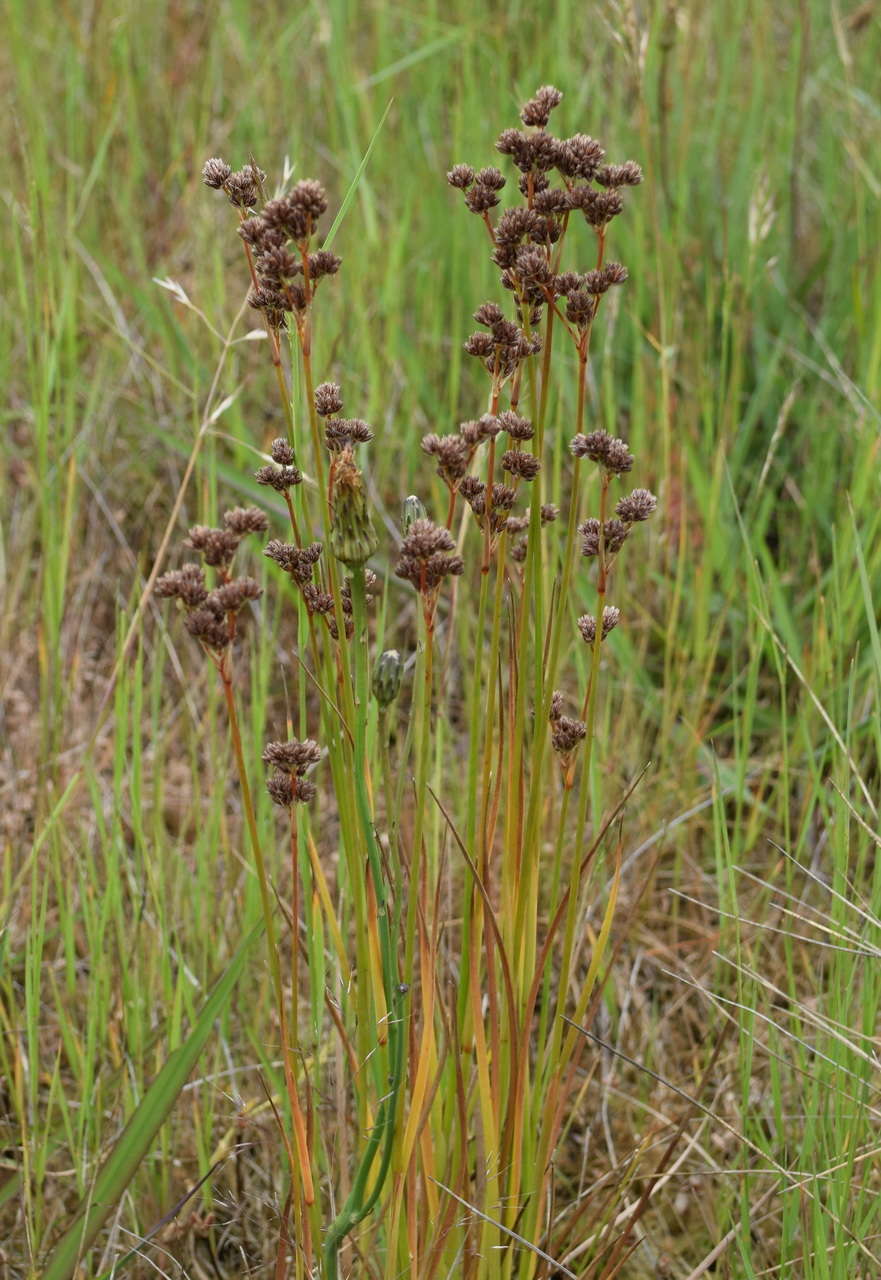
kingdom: Plantae
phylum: Tracheophyta
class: Liliopsida
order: Poales
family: Juncaceae
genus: Juncus
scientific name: Juncus pallescens
